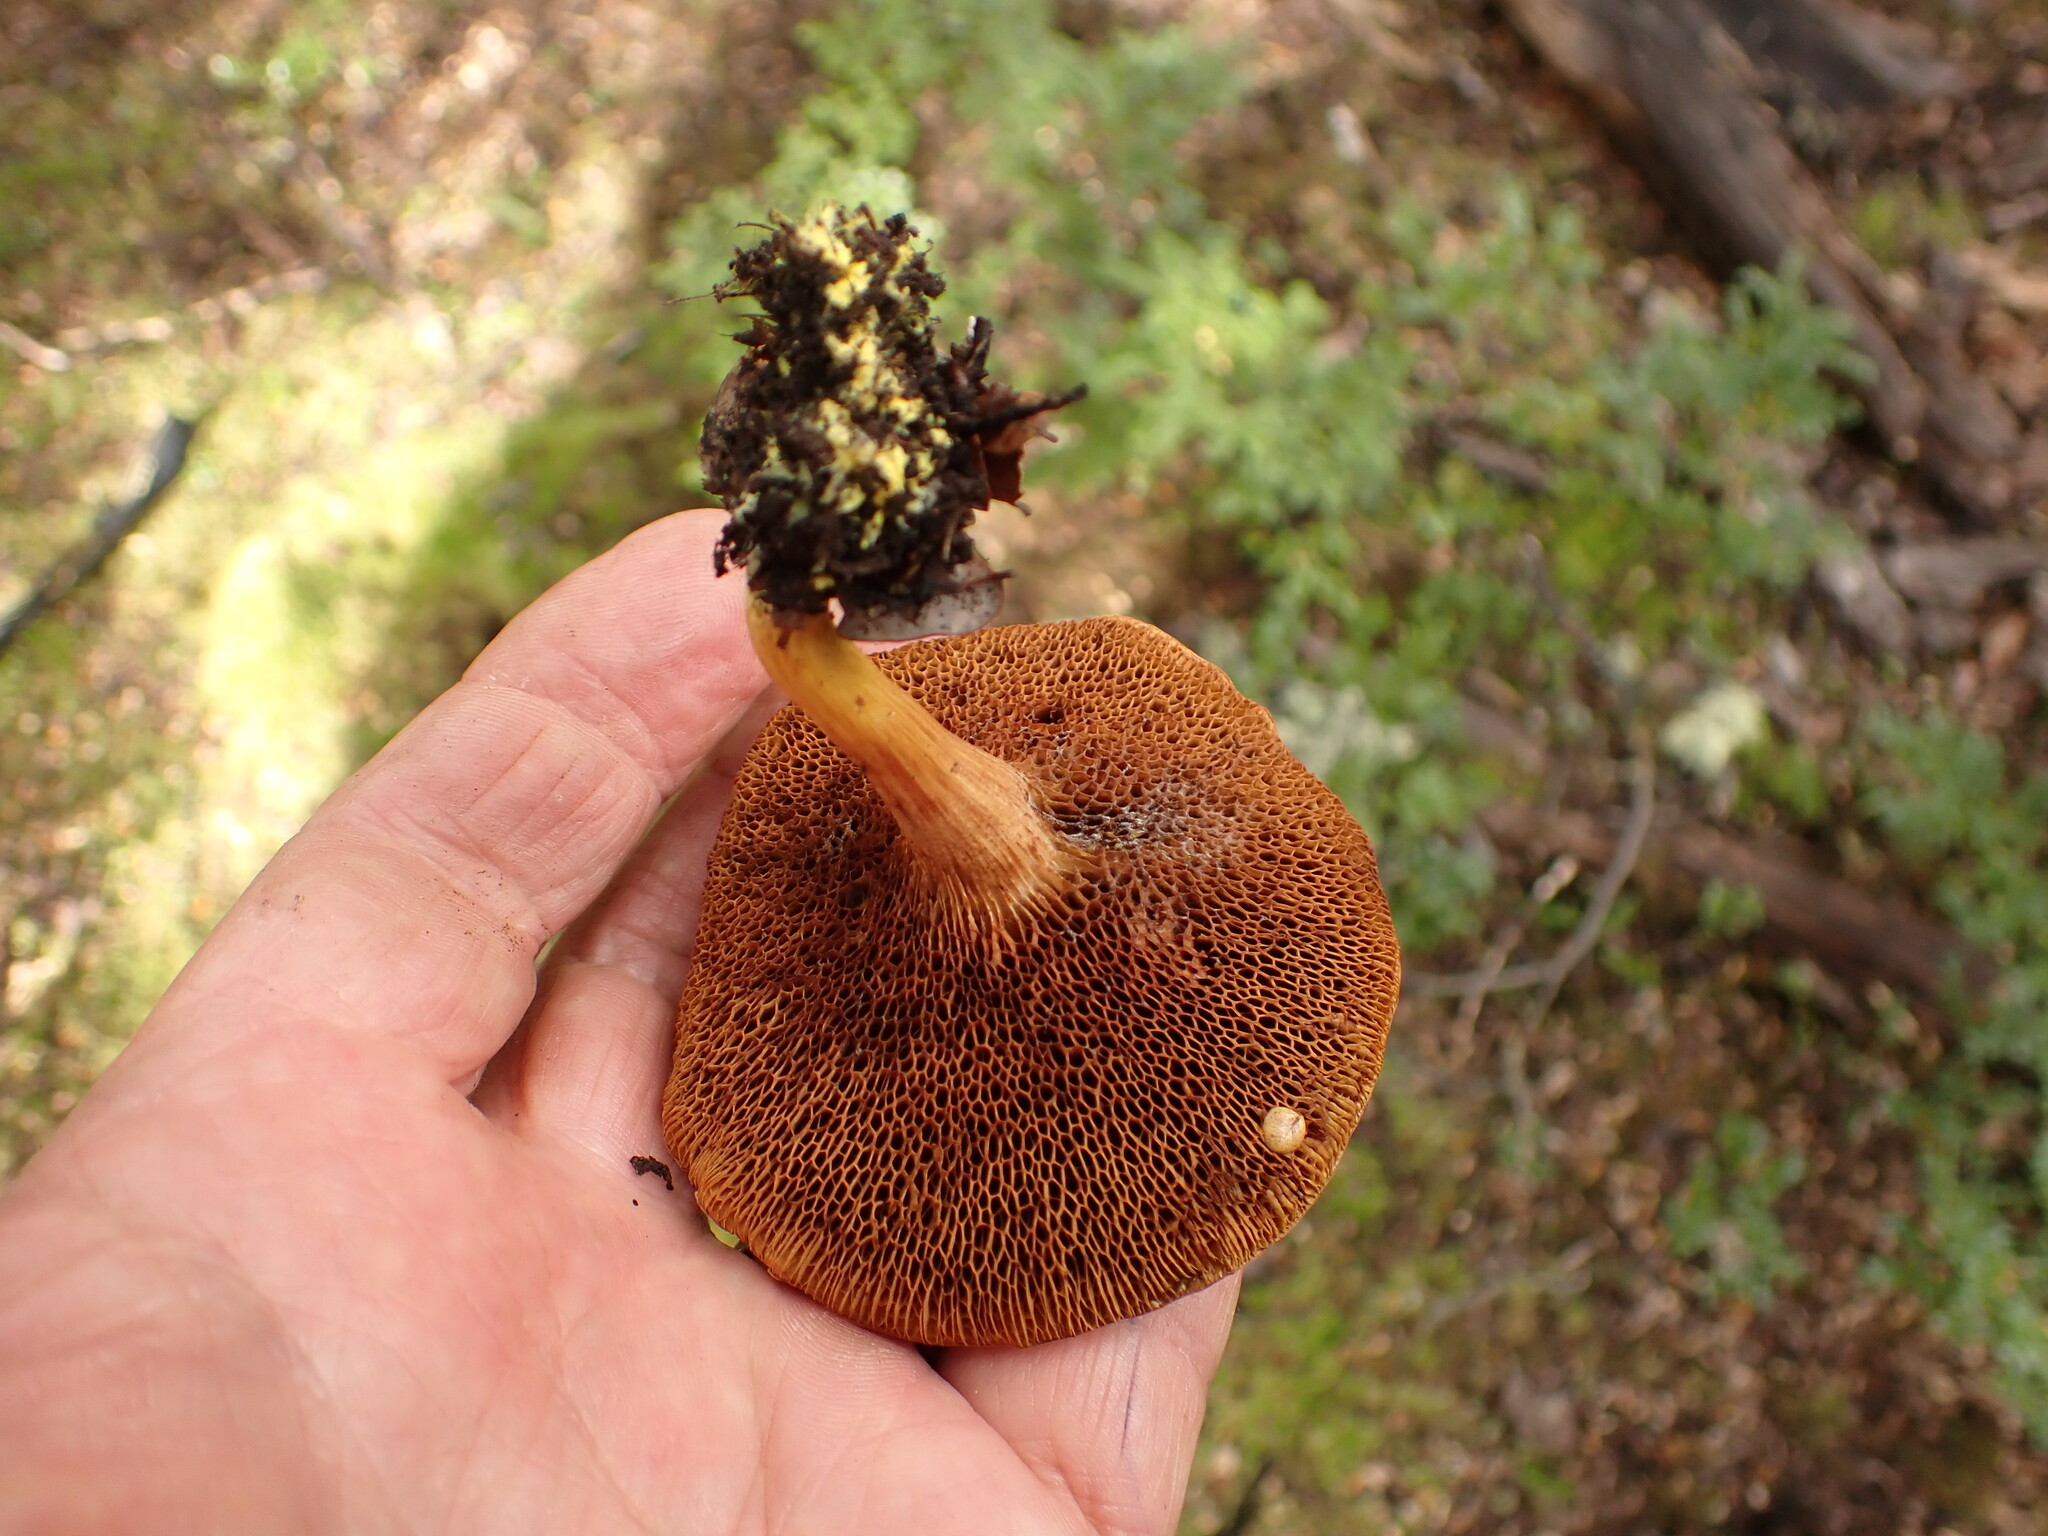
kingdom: Fungi
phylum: Basidiomycota
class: Agaricomycetes
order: Boletales
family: Boletaceae
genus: Chalciporus
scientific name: Chalciporus piperatus
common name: Peppery bolete
